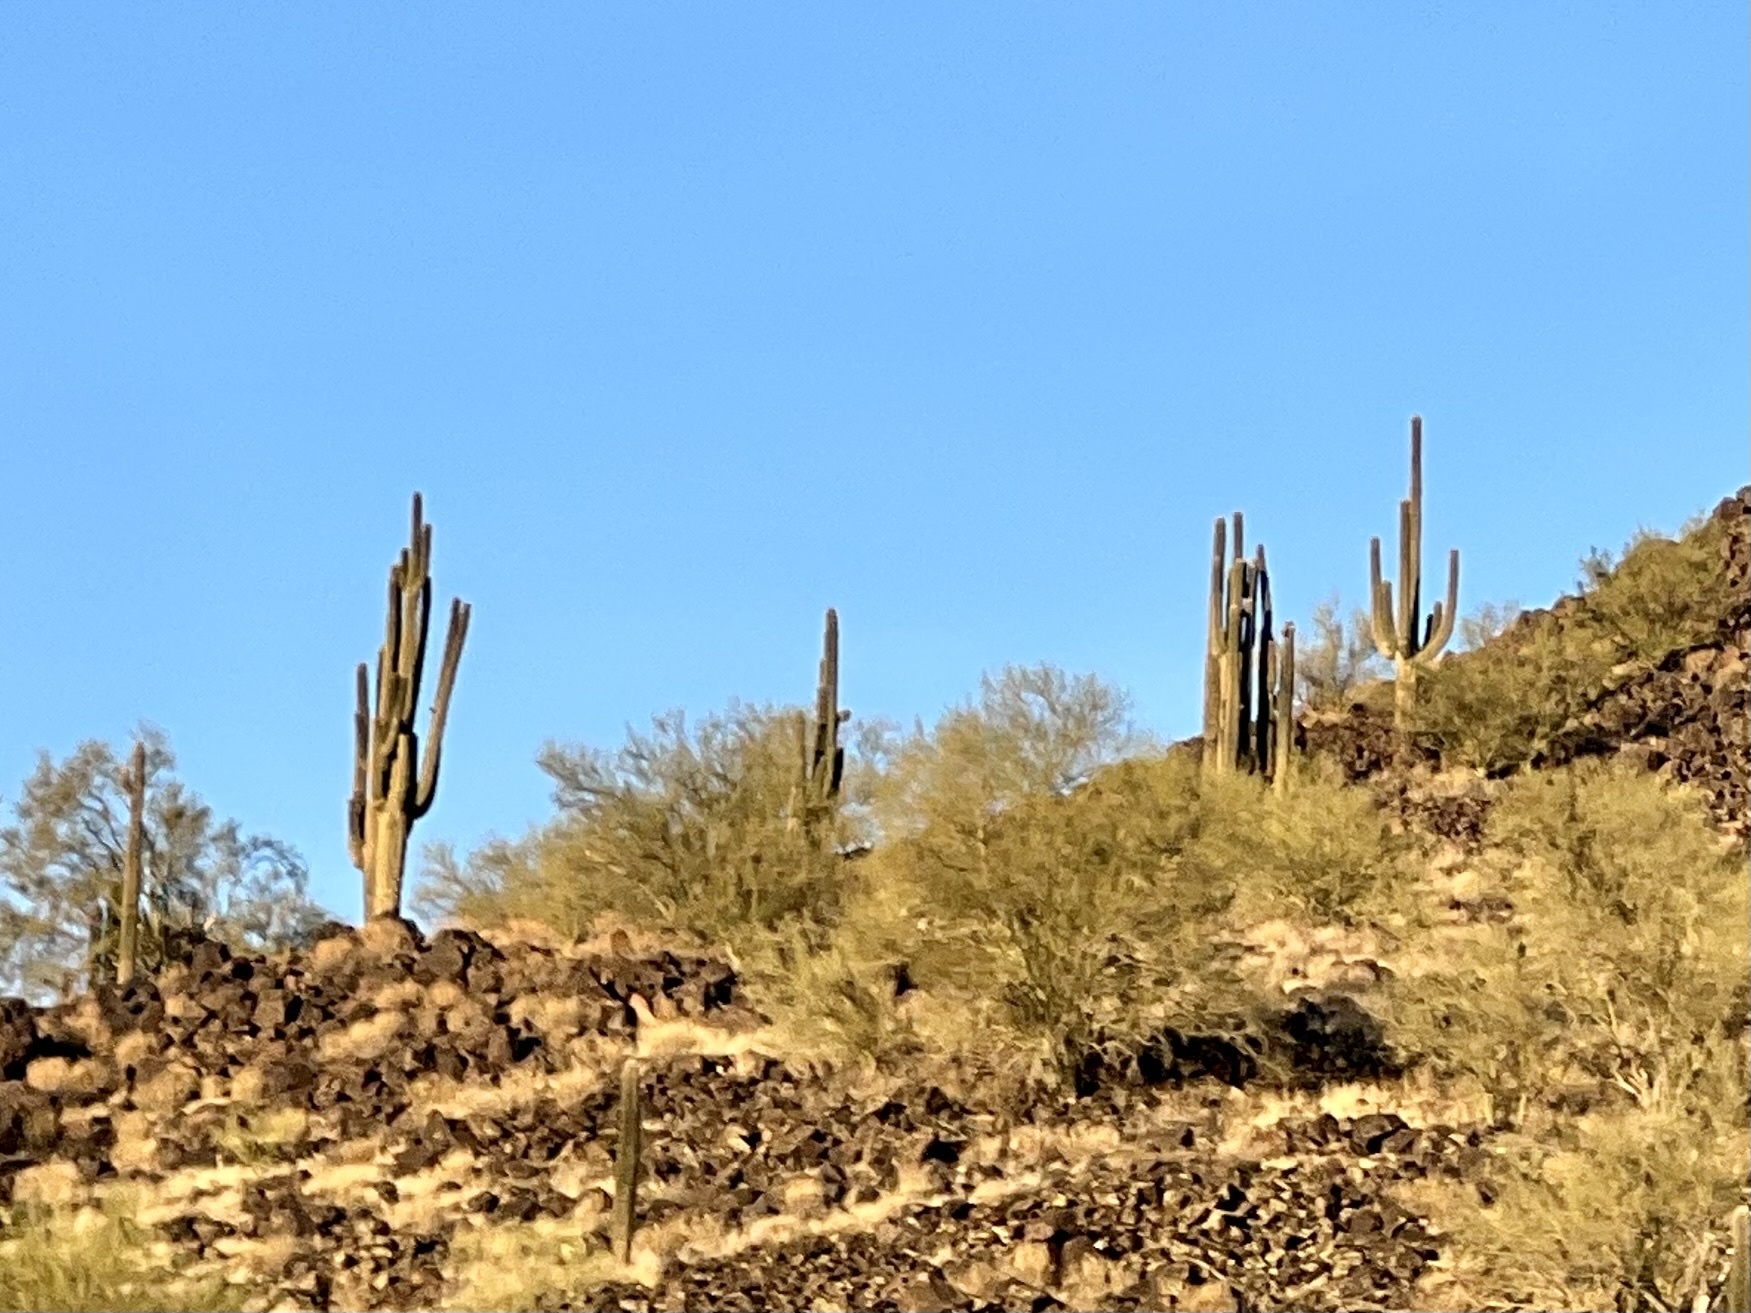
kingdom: Plantae
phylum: Tracheophyta
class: Magnoliopsida
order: Caryophyllales
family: Cactaceae
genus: Carnegiea
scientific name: Carnegiea gigantea
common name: Saguaro
